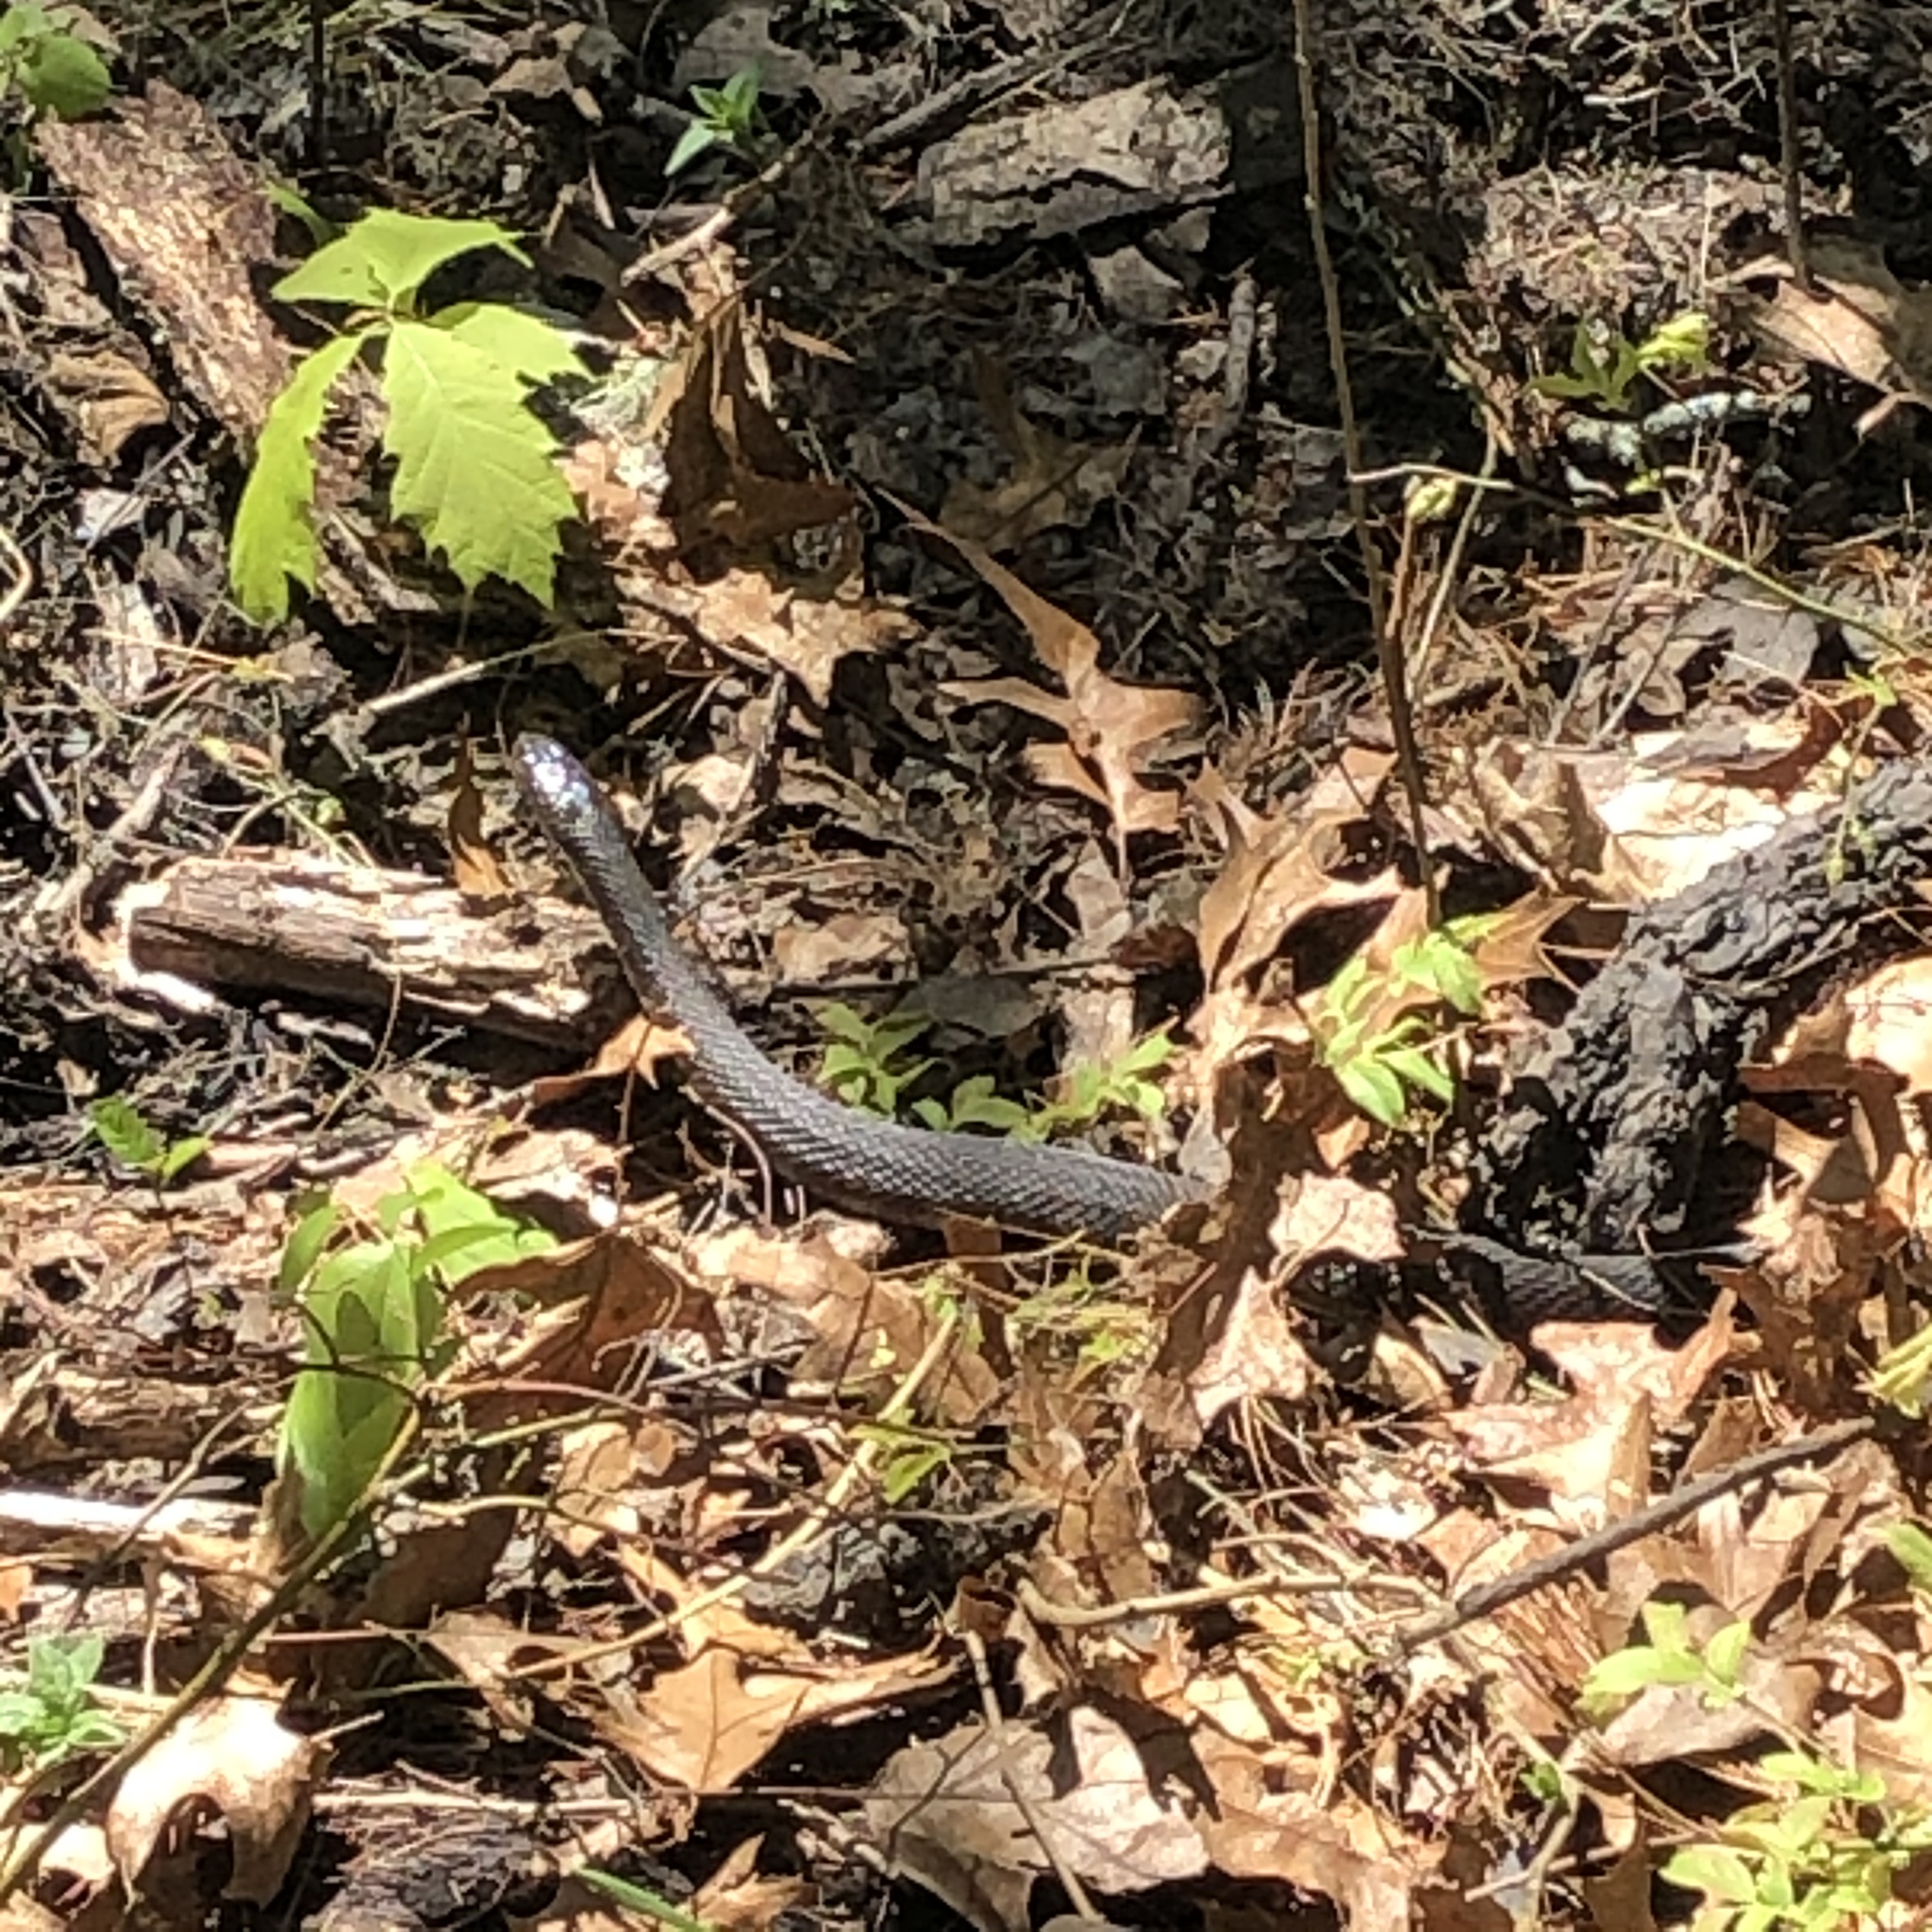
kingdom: Animalia
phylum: Chordata
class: Squamata
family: Colubridae
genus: Nerodia
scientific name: Nerodia sipedon
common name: Northern water snake
